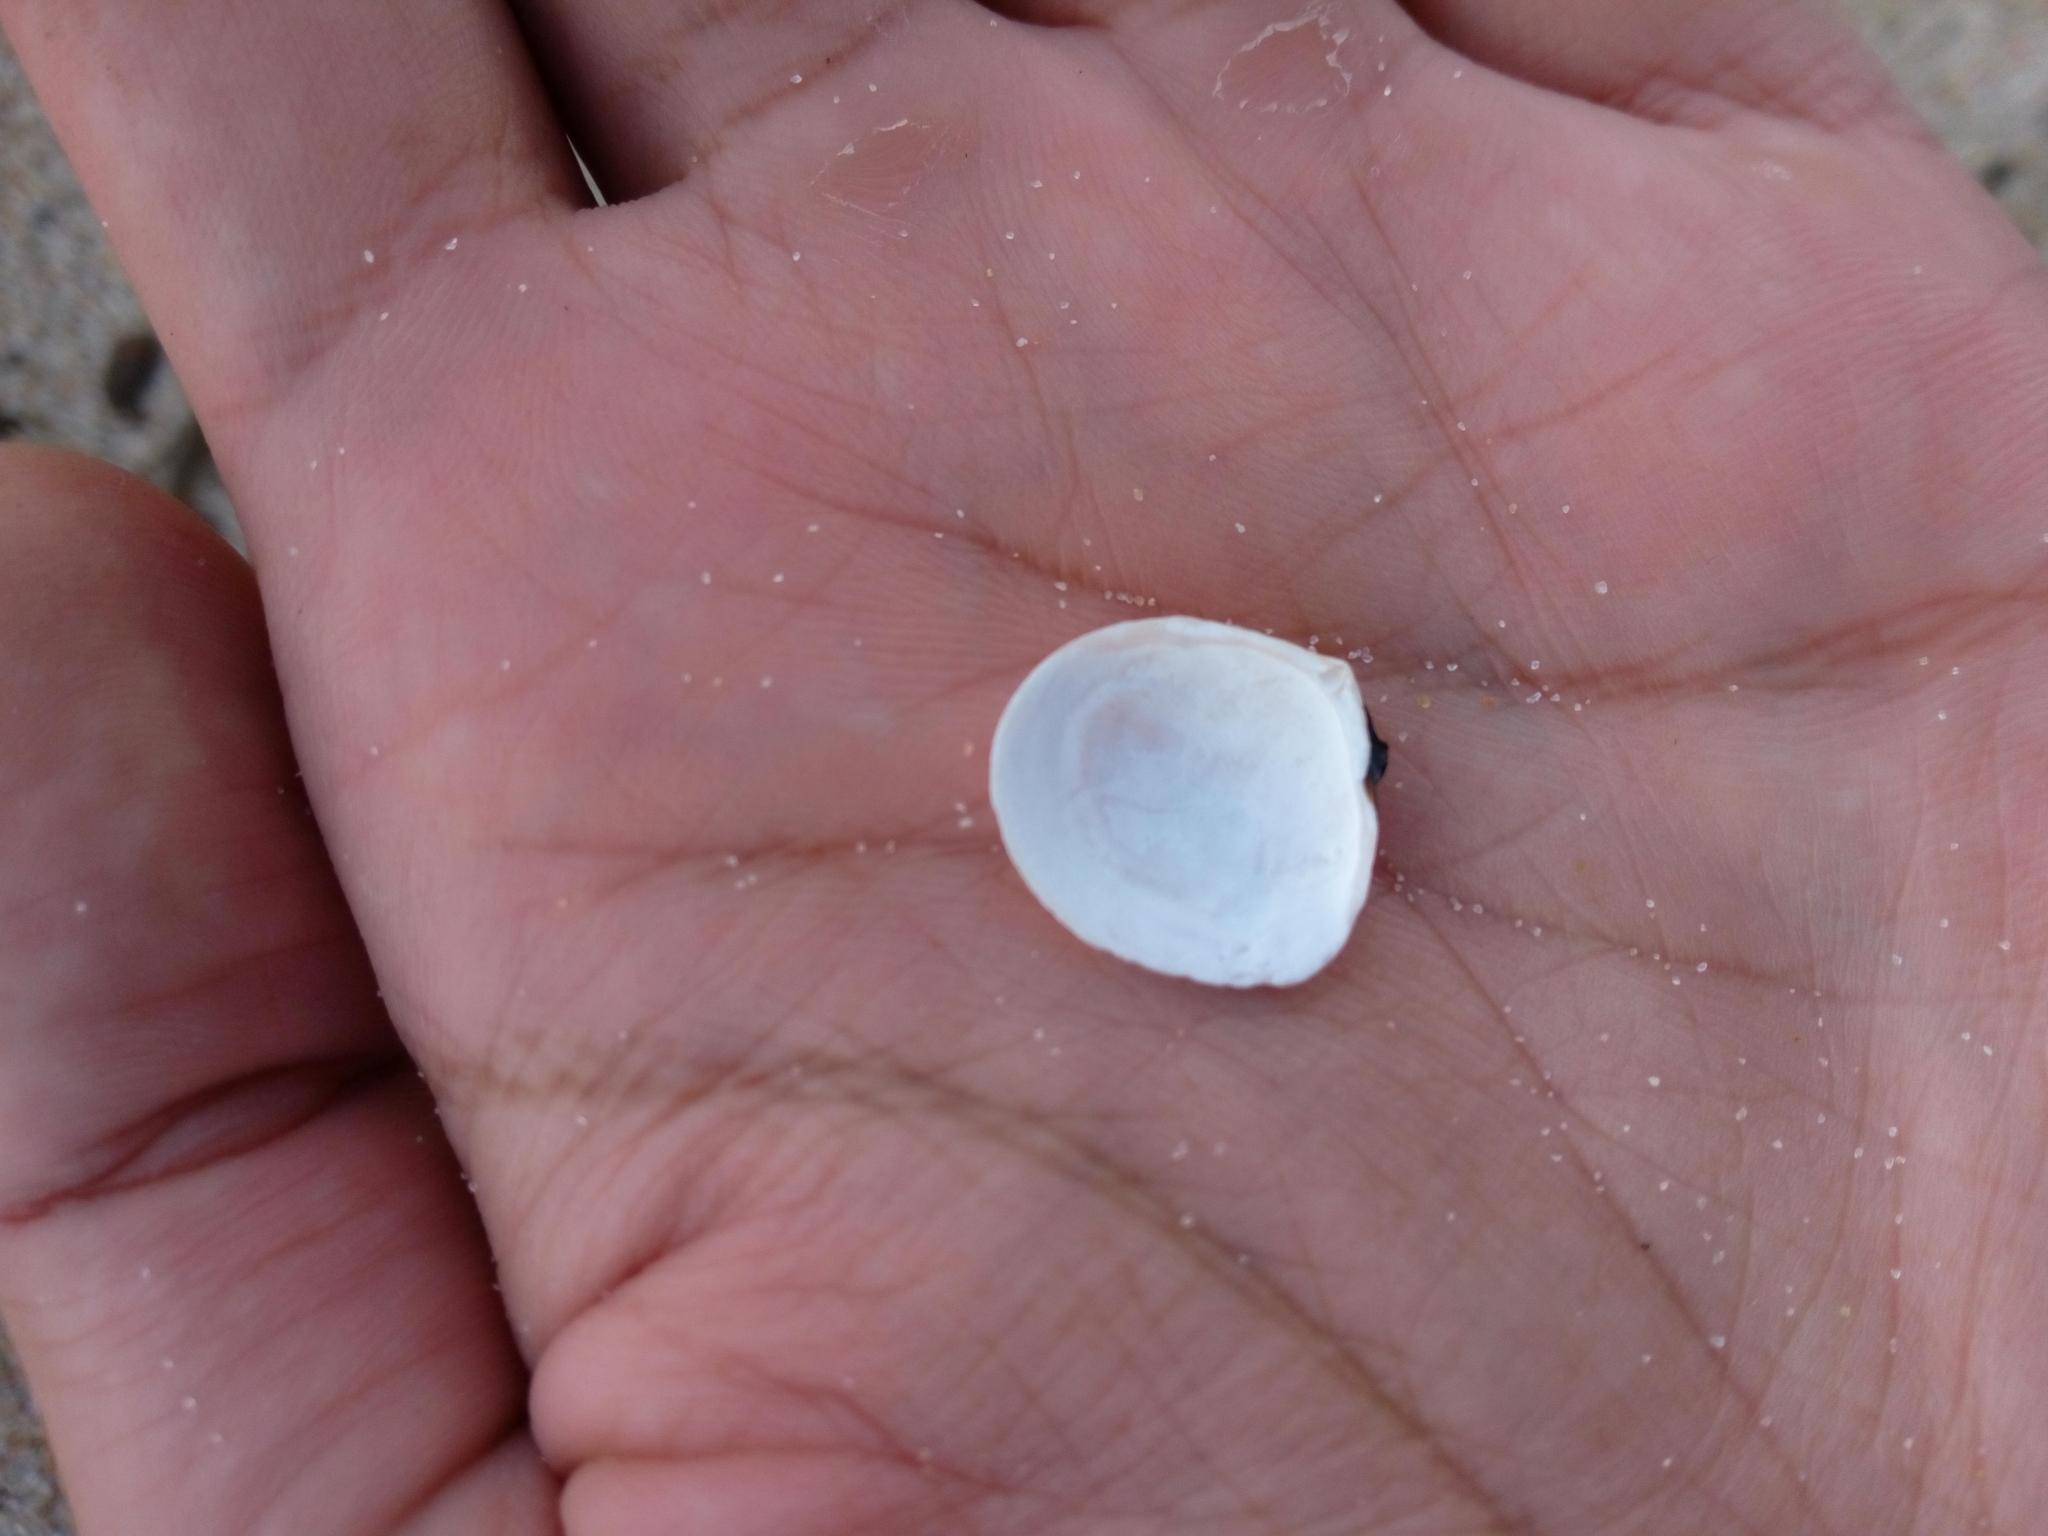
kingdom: Animalia
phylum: Mollusca
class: Bivalvia
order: Cardiida
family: Tellinidae
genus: Macoma
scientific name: Macoma balthica
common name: Baltic tellin
